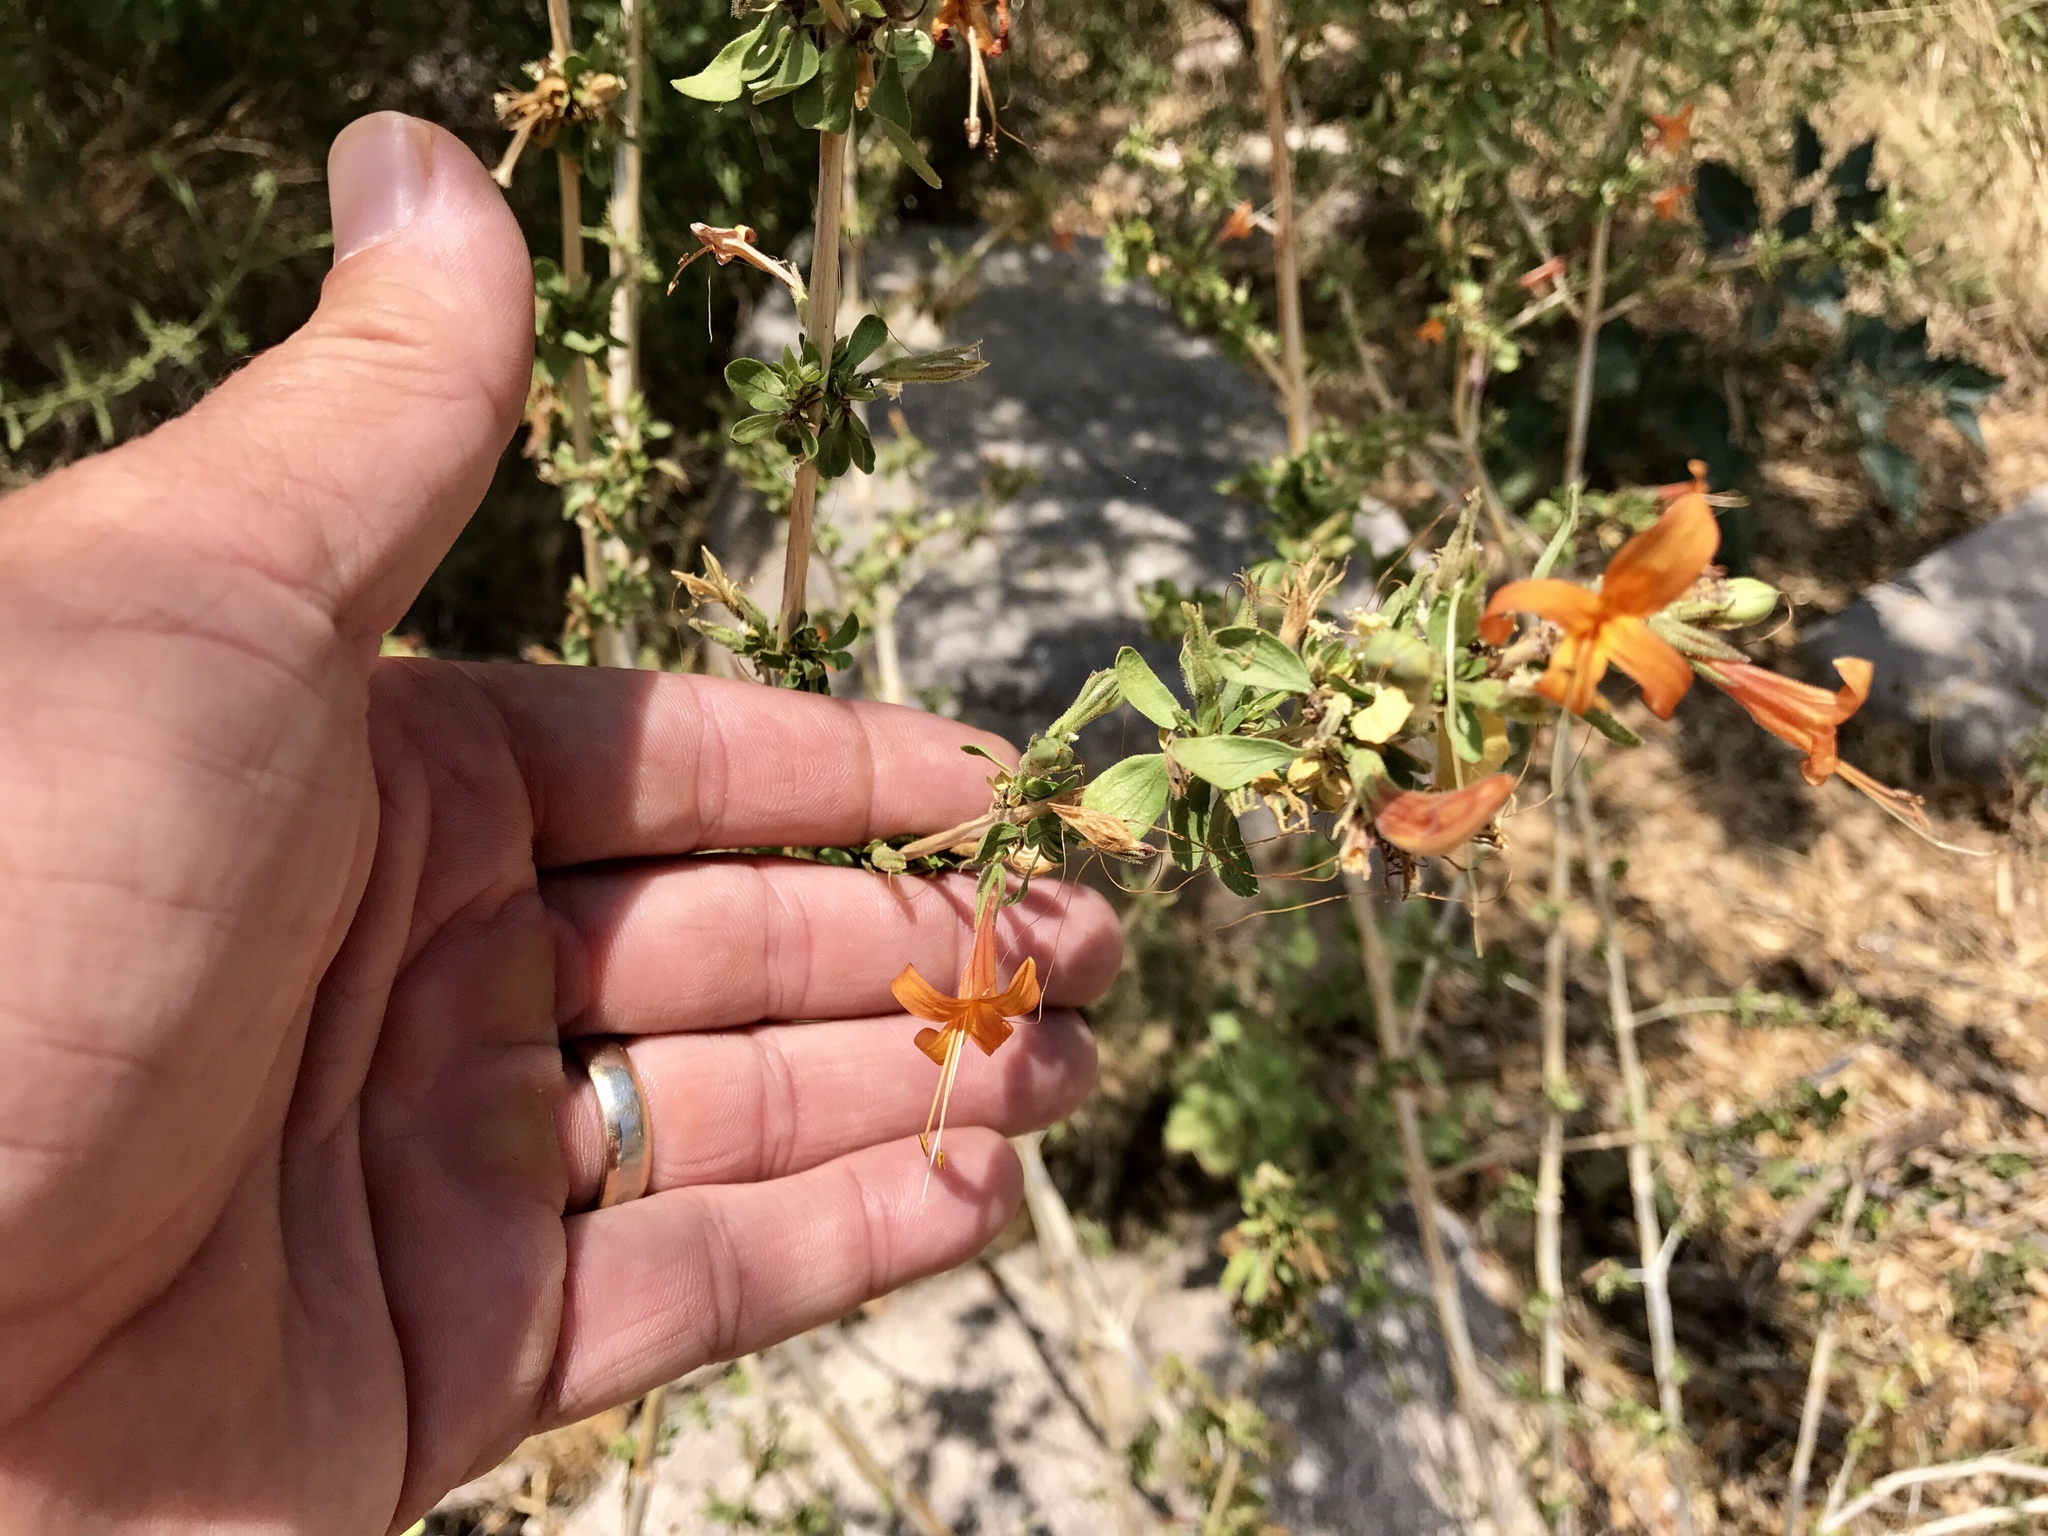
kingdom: Plantae
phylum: Tracheophyta
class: Magnoliopsida
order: Lamiales
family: Acanthaceae
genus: Anisacanthus
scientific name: Anisacanthus thurberi
